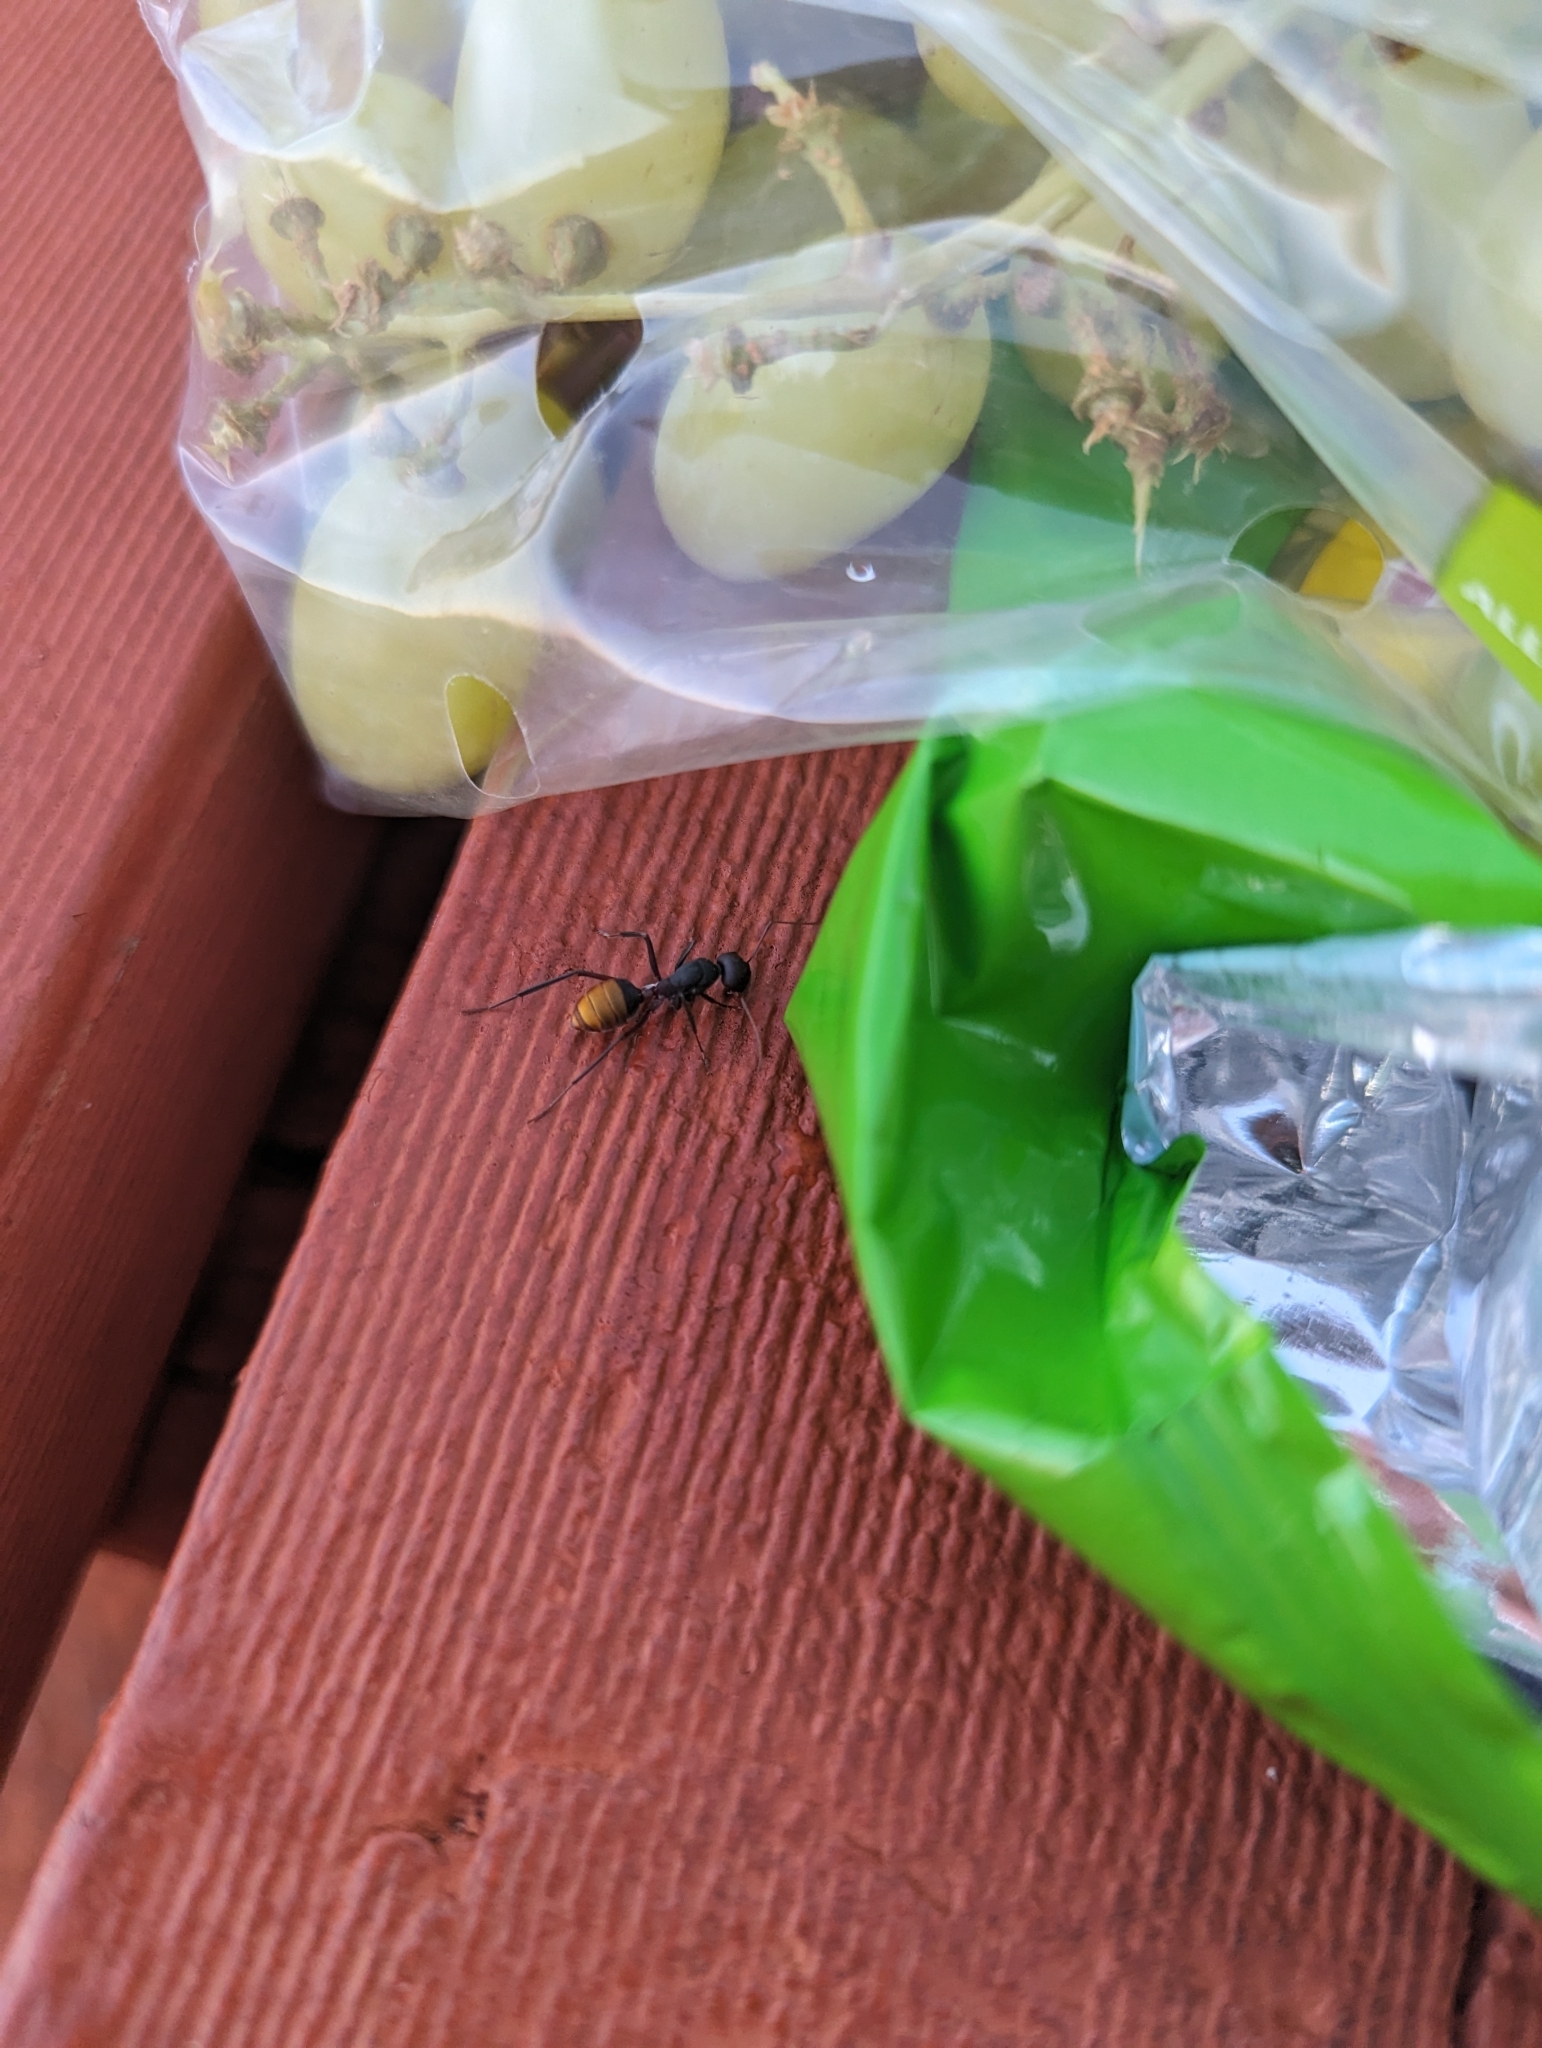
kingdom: Animalia
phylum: Arthropoda
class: Insecta
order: Hymenoptera
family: Formicidae
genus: Camponotus
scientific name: Camponotus aurocinctus
